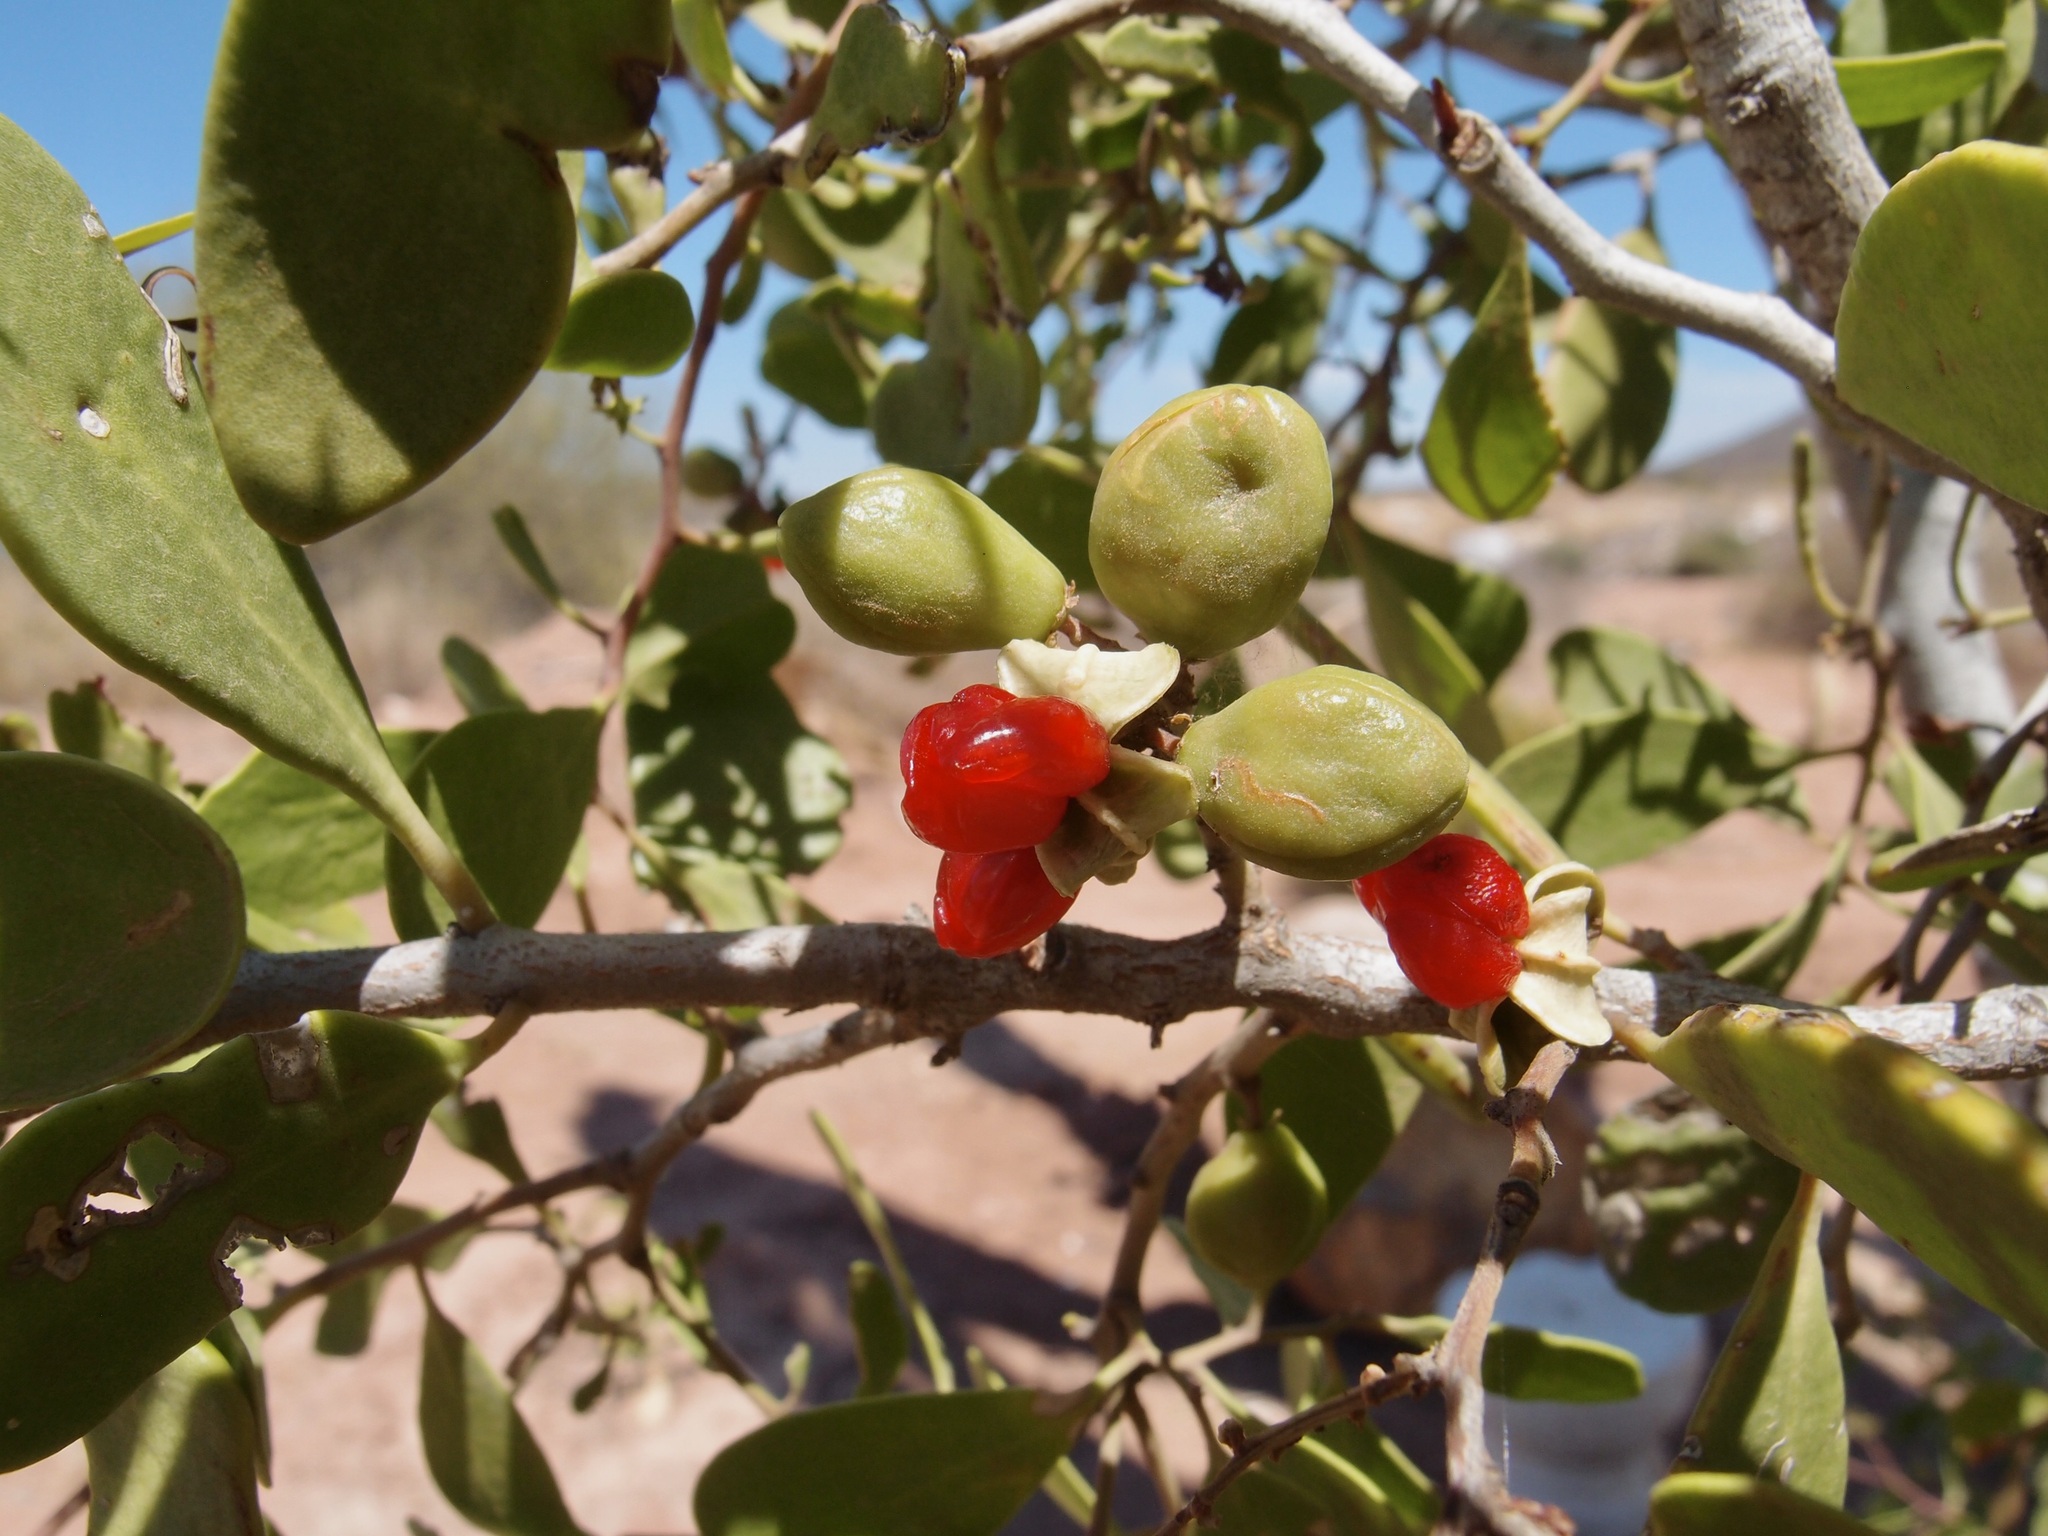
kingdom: Plantae
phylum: Tracheophyta
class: Magnoliopsida
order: Celastrales
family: Celastraceae
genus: Tricerma
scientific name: Tricerma phyllanthoides
